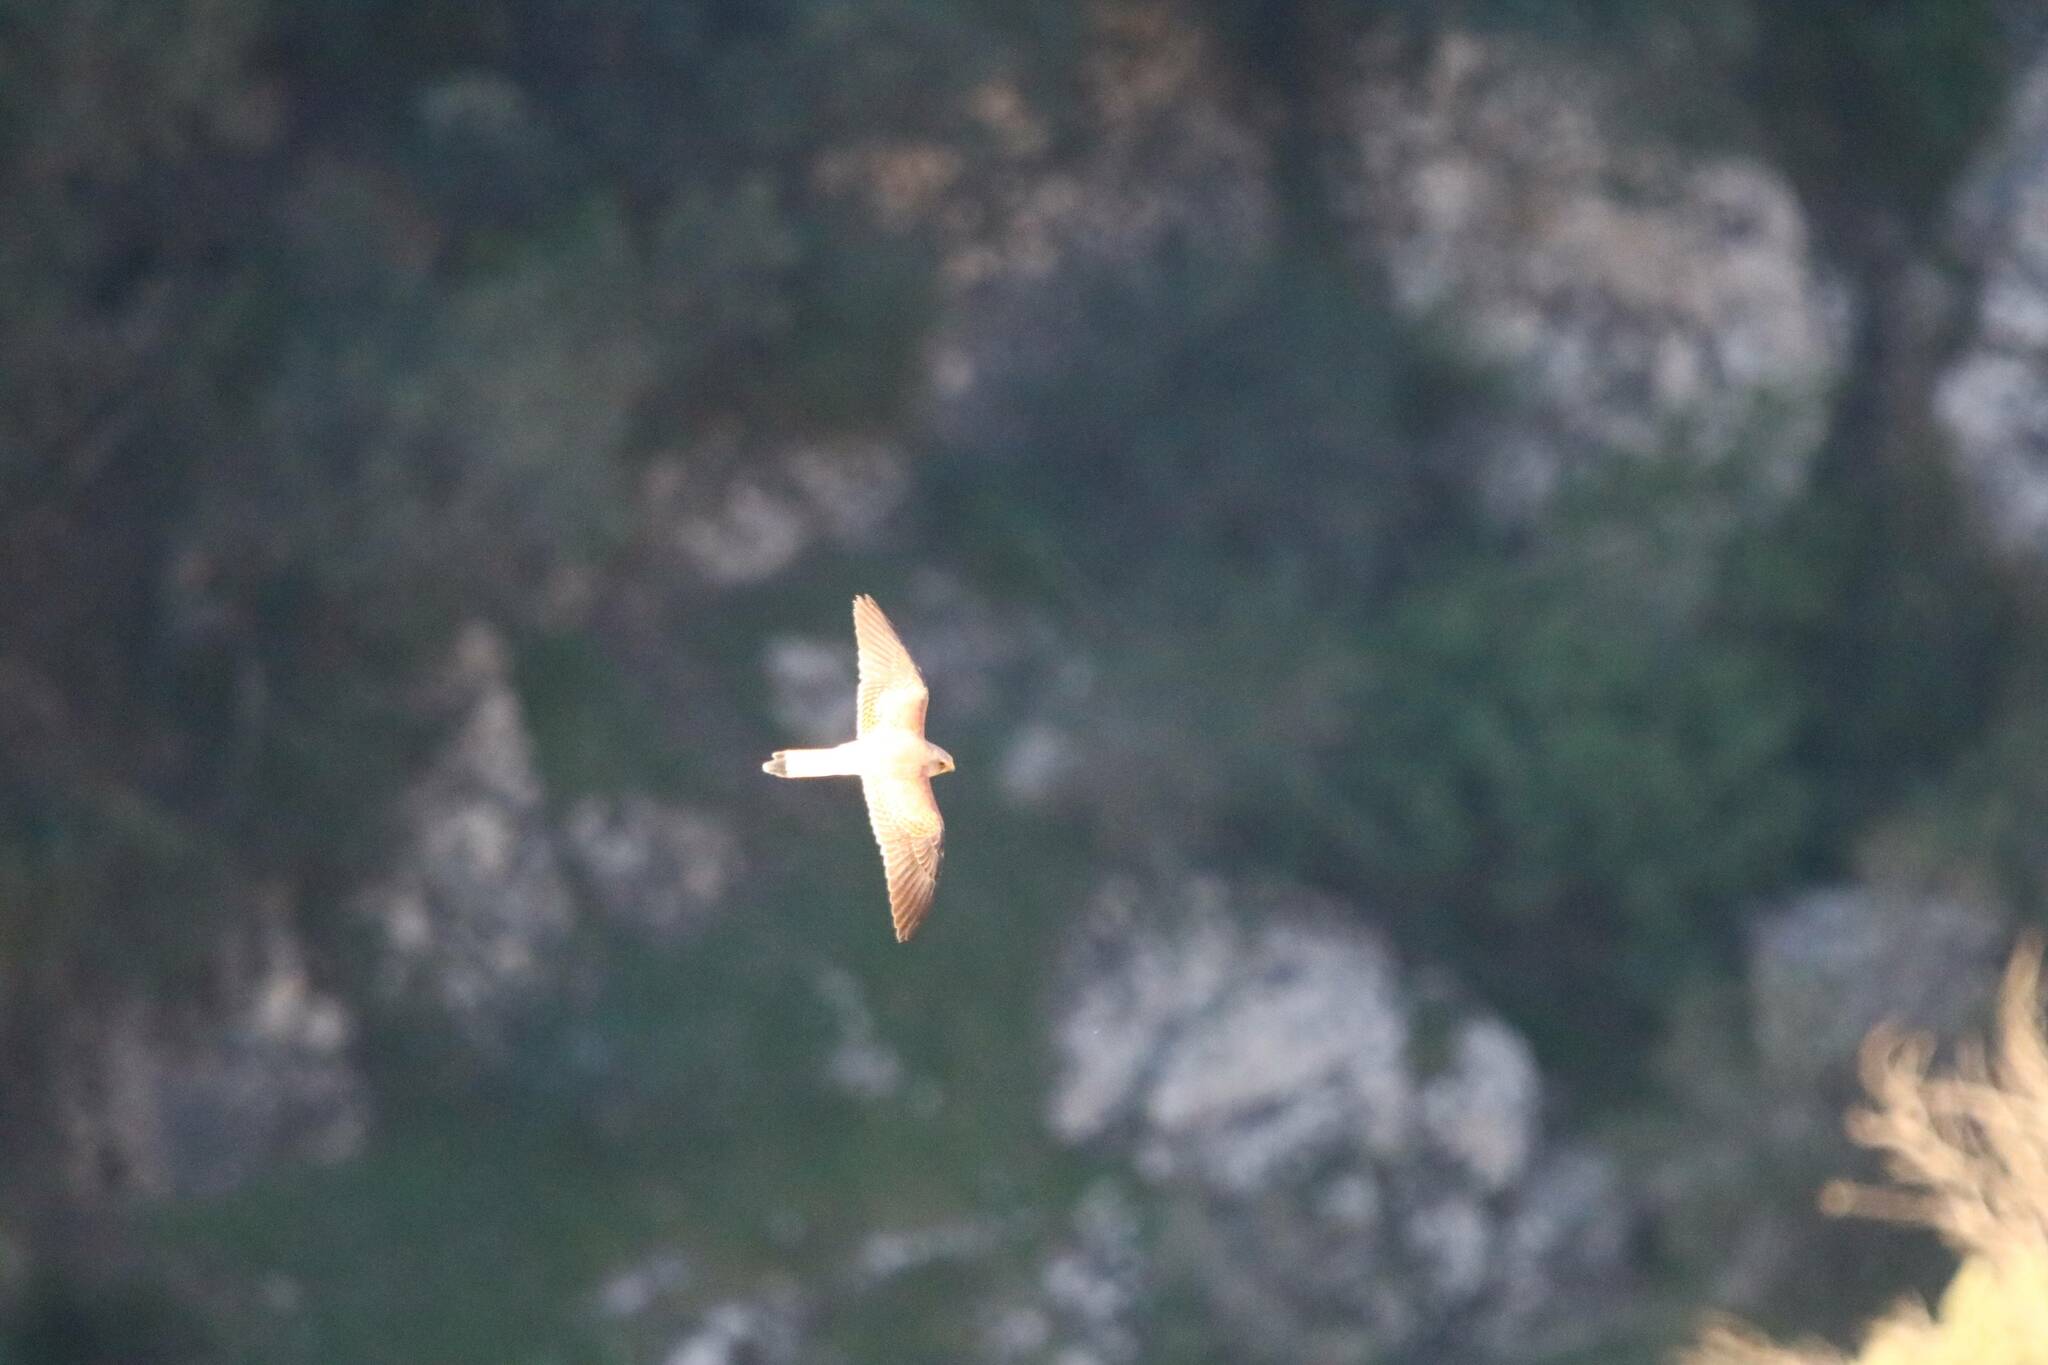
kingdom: Animalia
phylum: Chordata
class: Aves
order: Falconiformes
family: Falconidae
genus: Falco
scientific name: Falco naumanni
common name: Lesser kestrel
